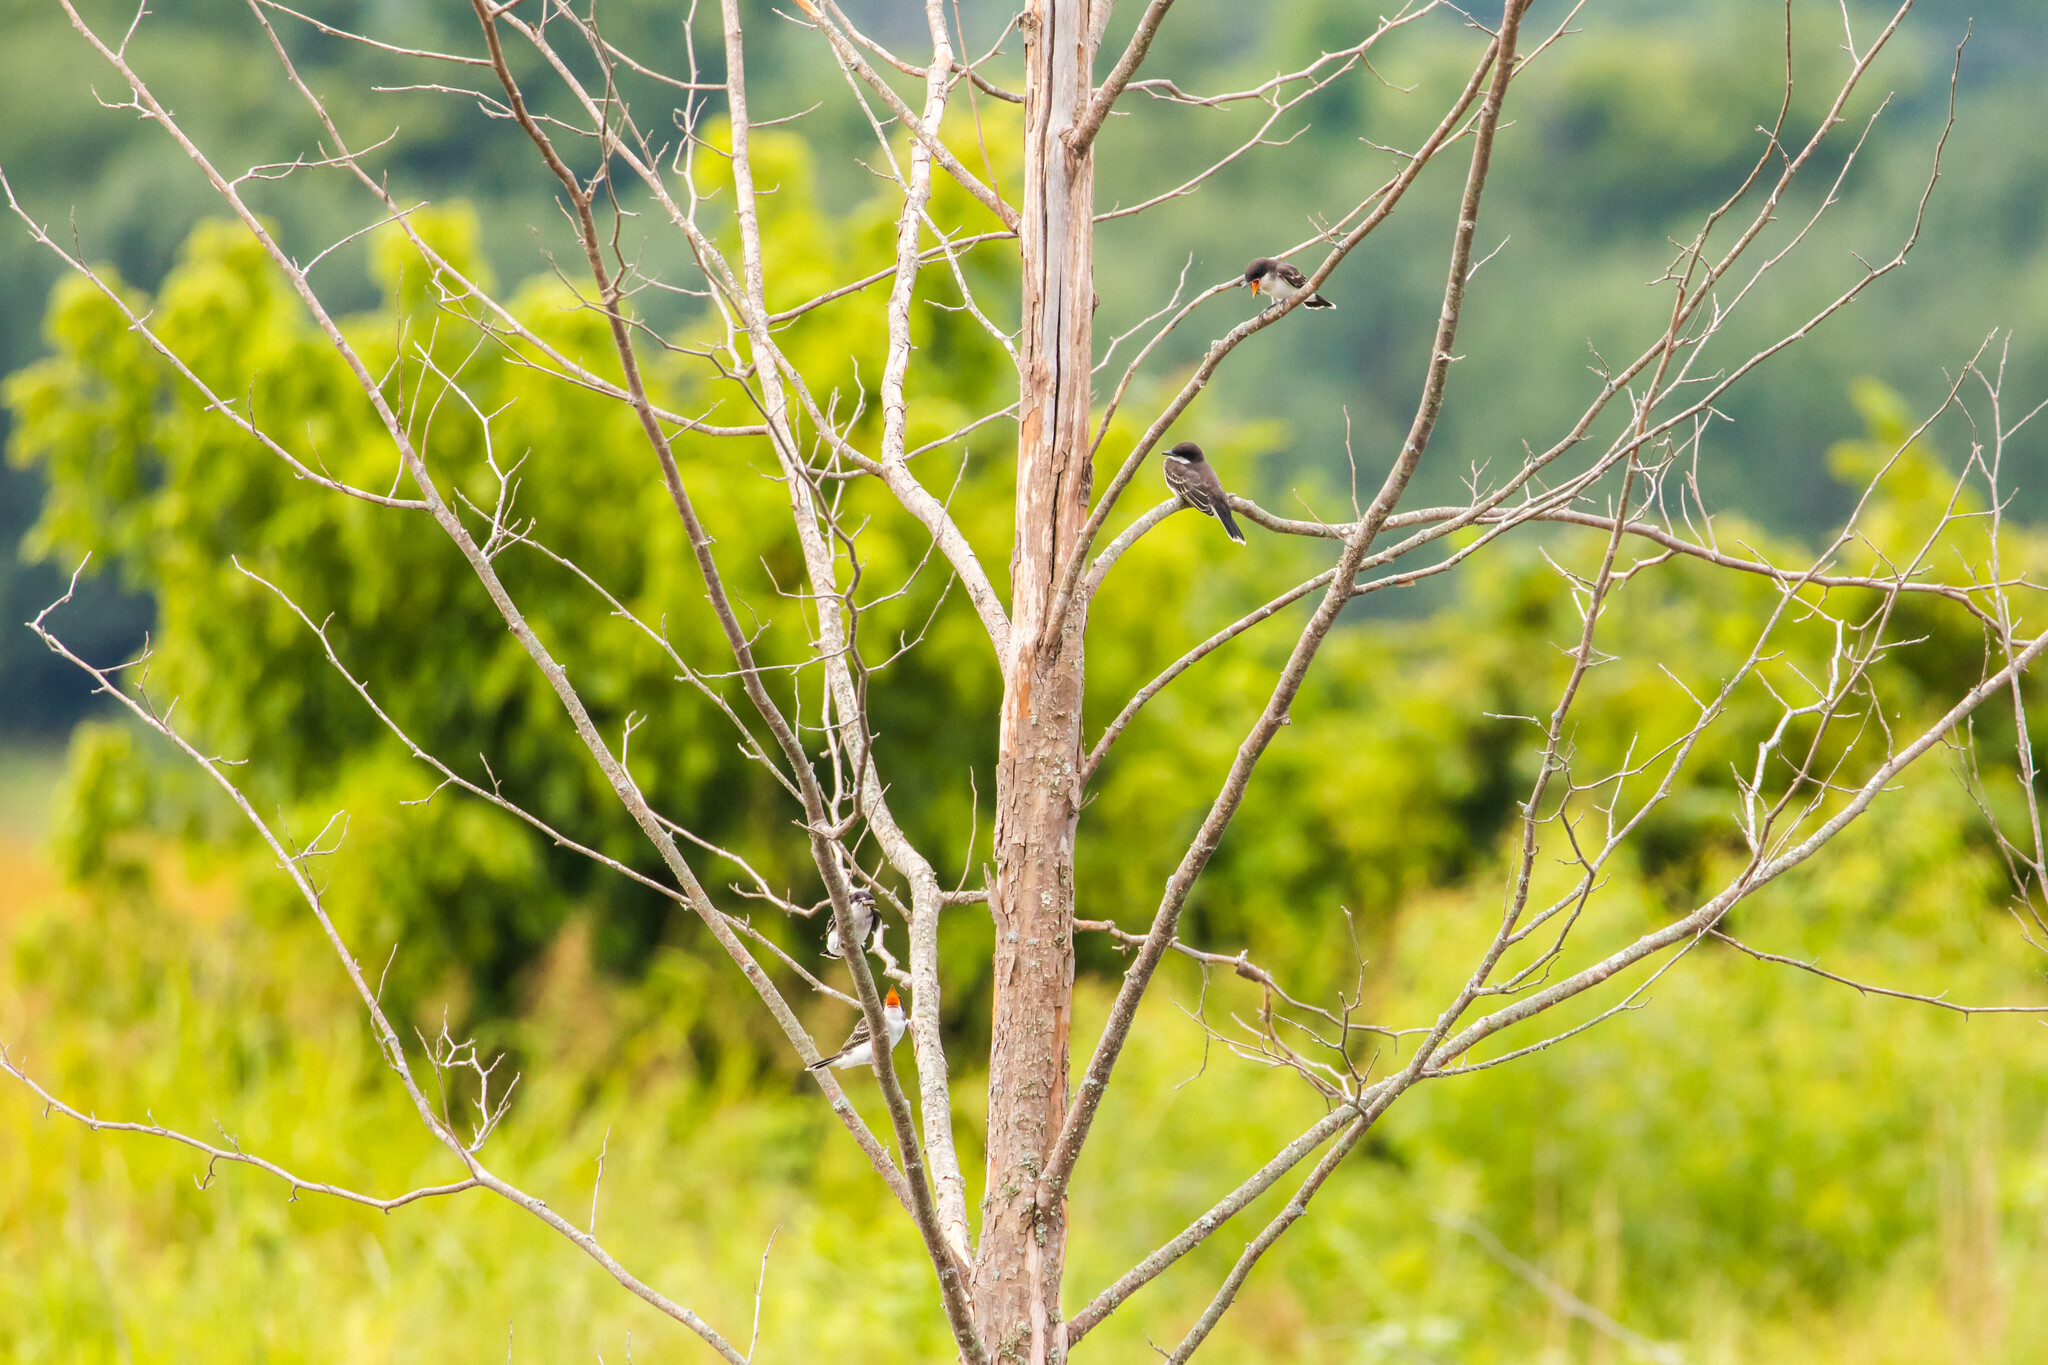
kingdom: Animalia
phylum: Chordata
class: Aves
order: Passeriformes
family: Tyrannidae
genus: Tyrannus
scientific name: Tyrannus tyrannus
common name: Eastern kingbird
